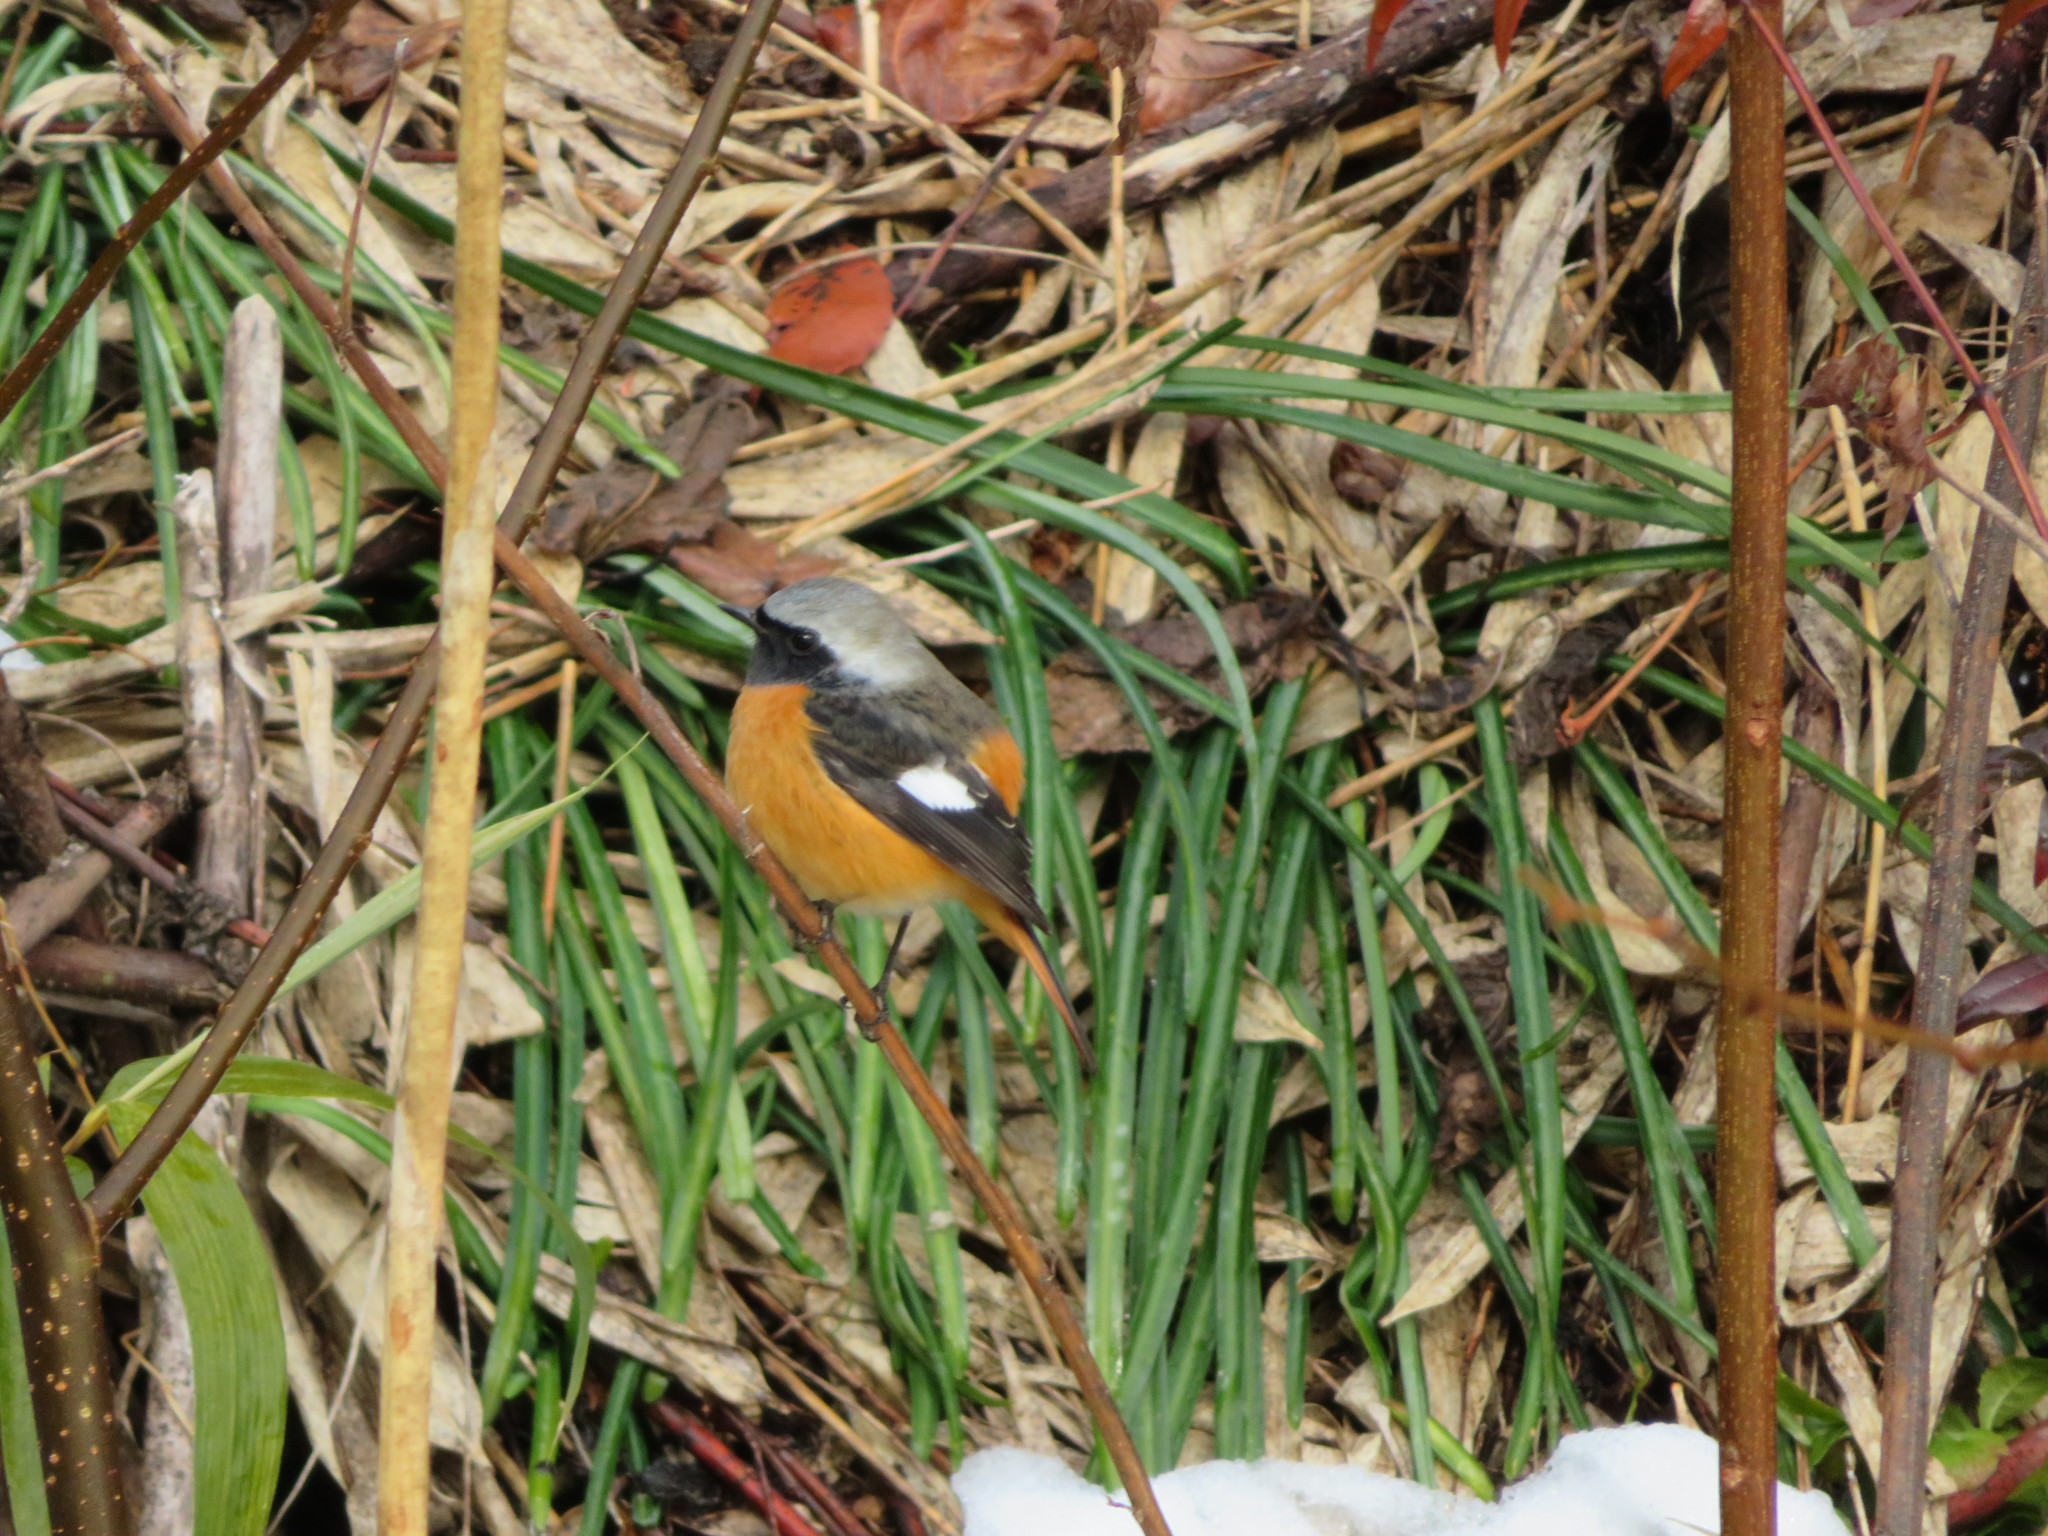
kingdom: Animalia
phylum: Chordata
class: Aves
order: Passeriformes
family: Muscicapidae
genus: Phoenicurus
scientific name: Phoenicurus auroreus
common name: Daurian redstart
